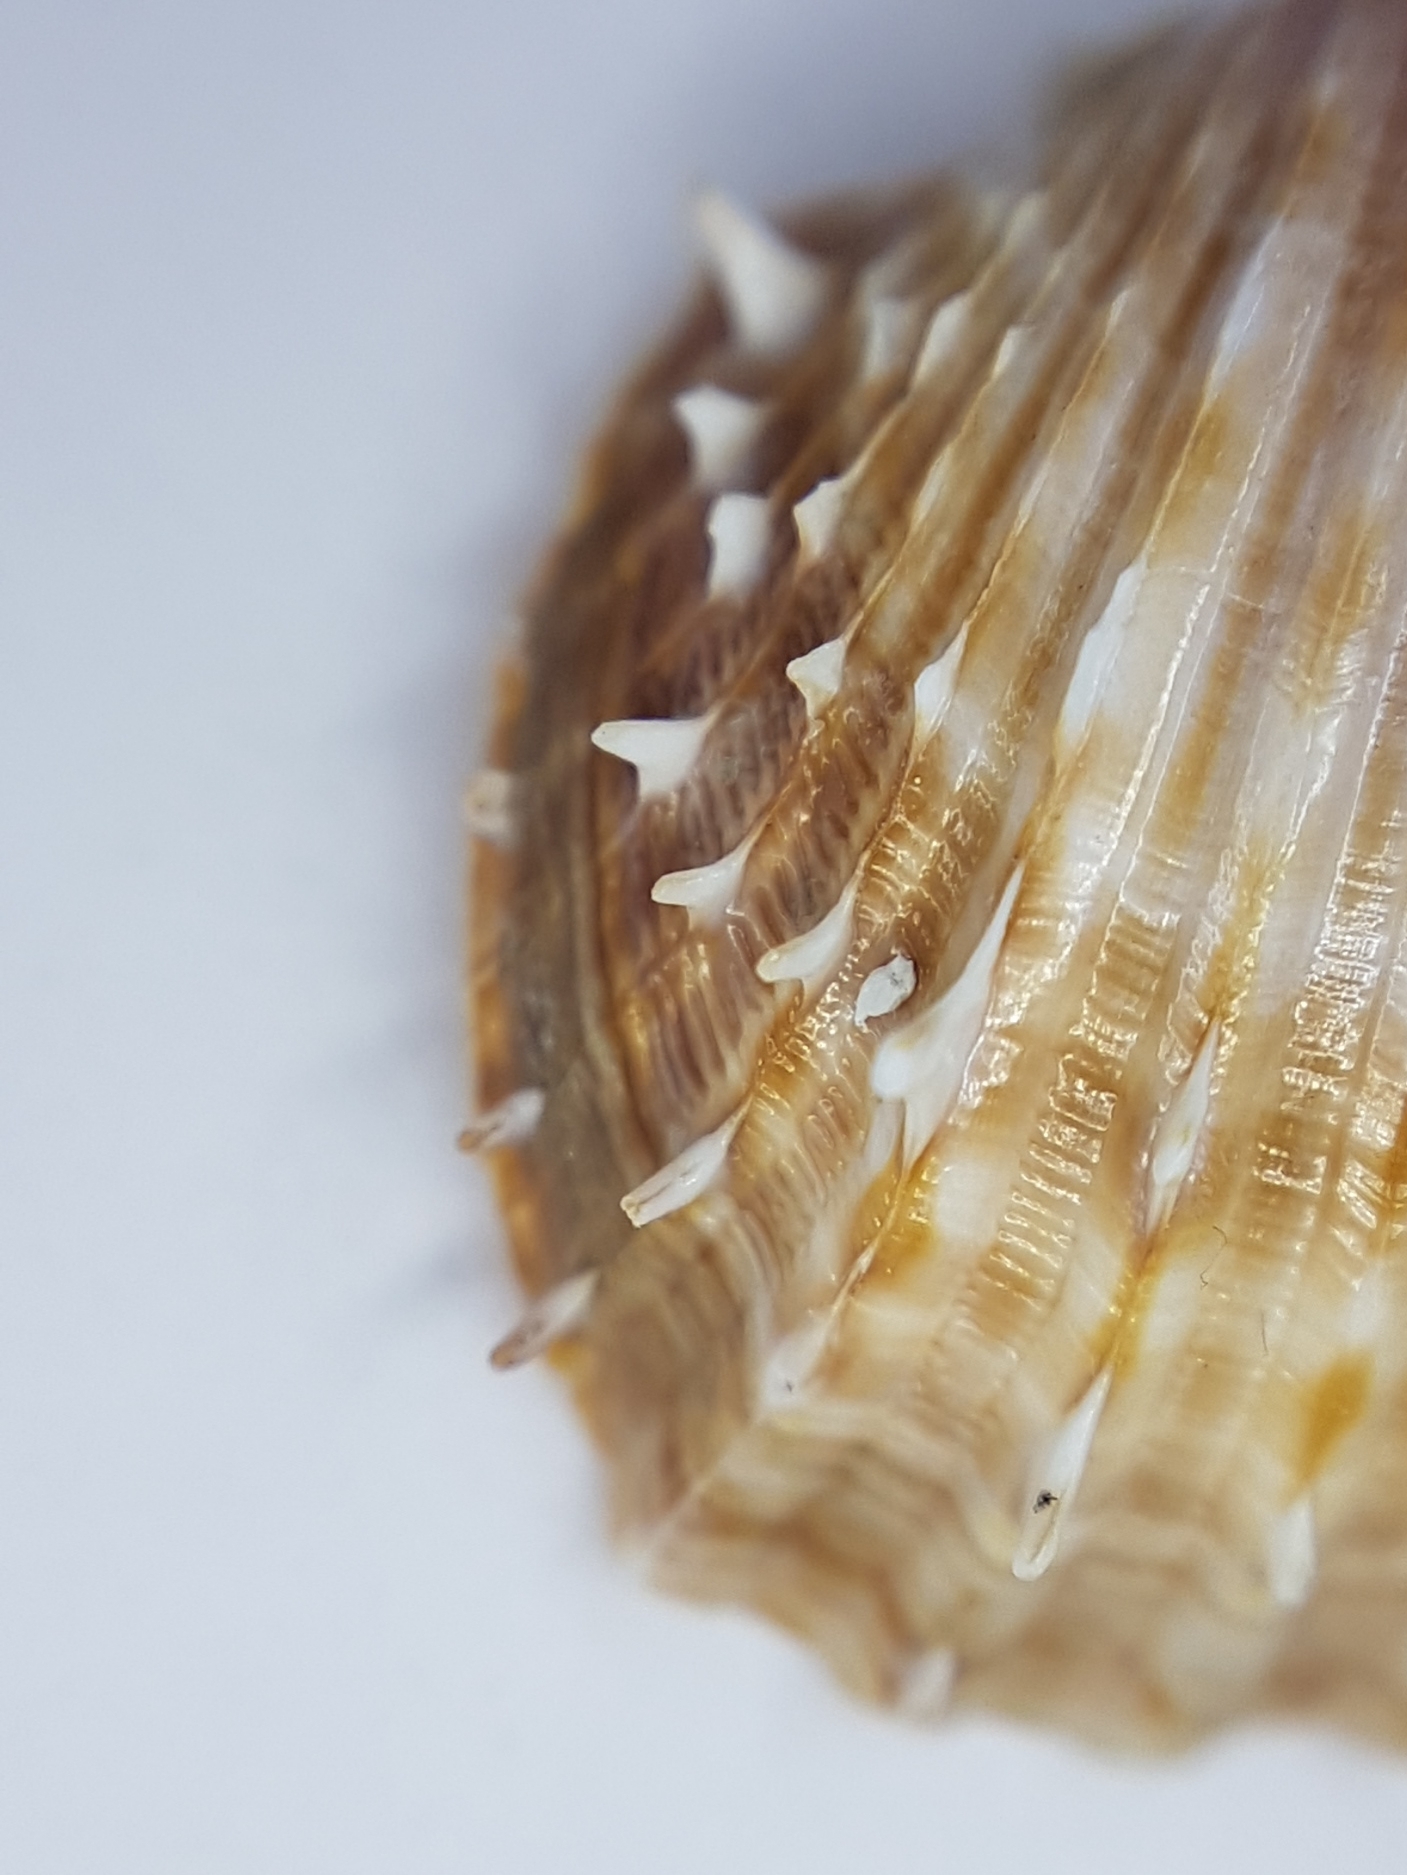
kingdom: Animalia
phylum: Mollusca
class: Bivalvia
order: Cardiida
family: Cardiidae
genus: Acanthocardia
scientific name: Acanthocardia aculeata
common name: Spiny cockle
